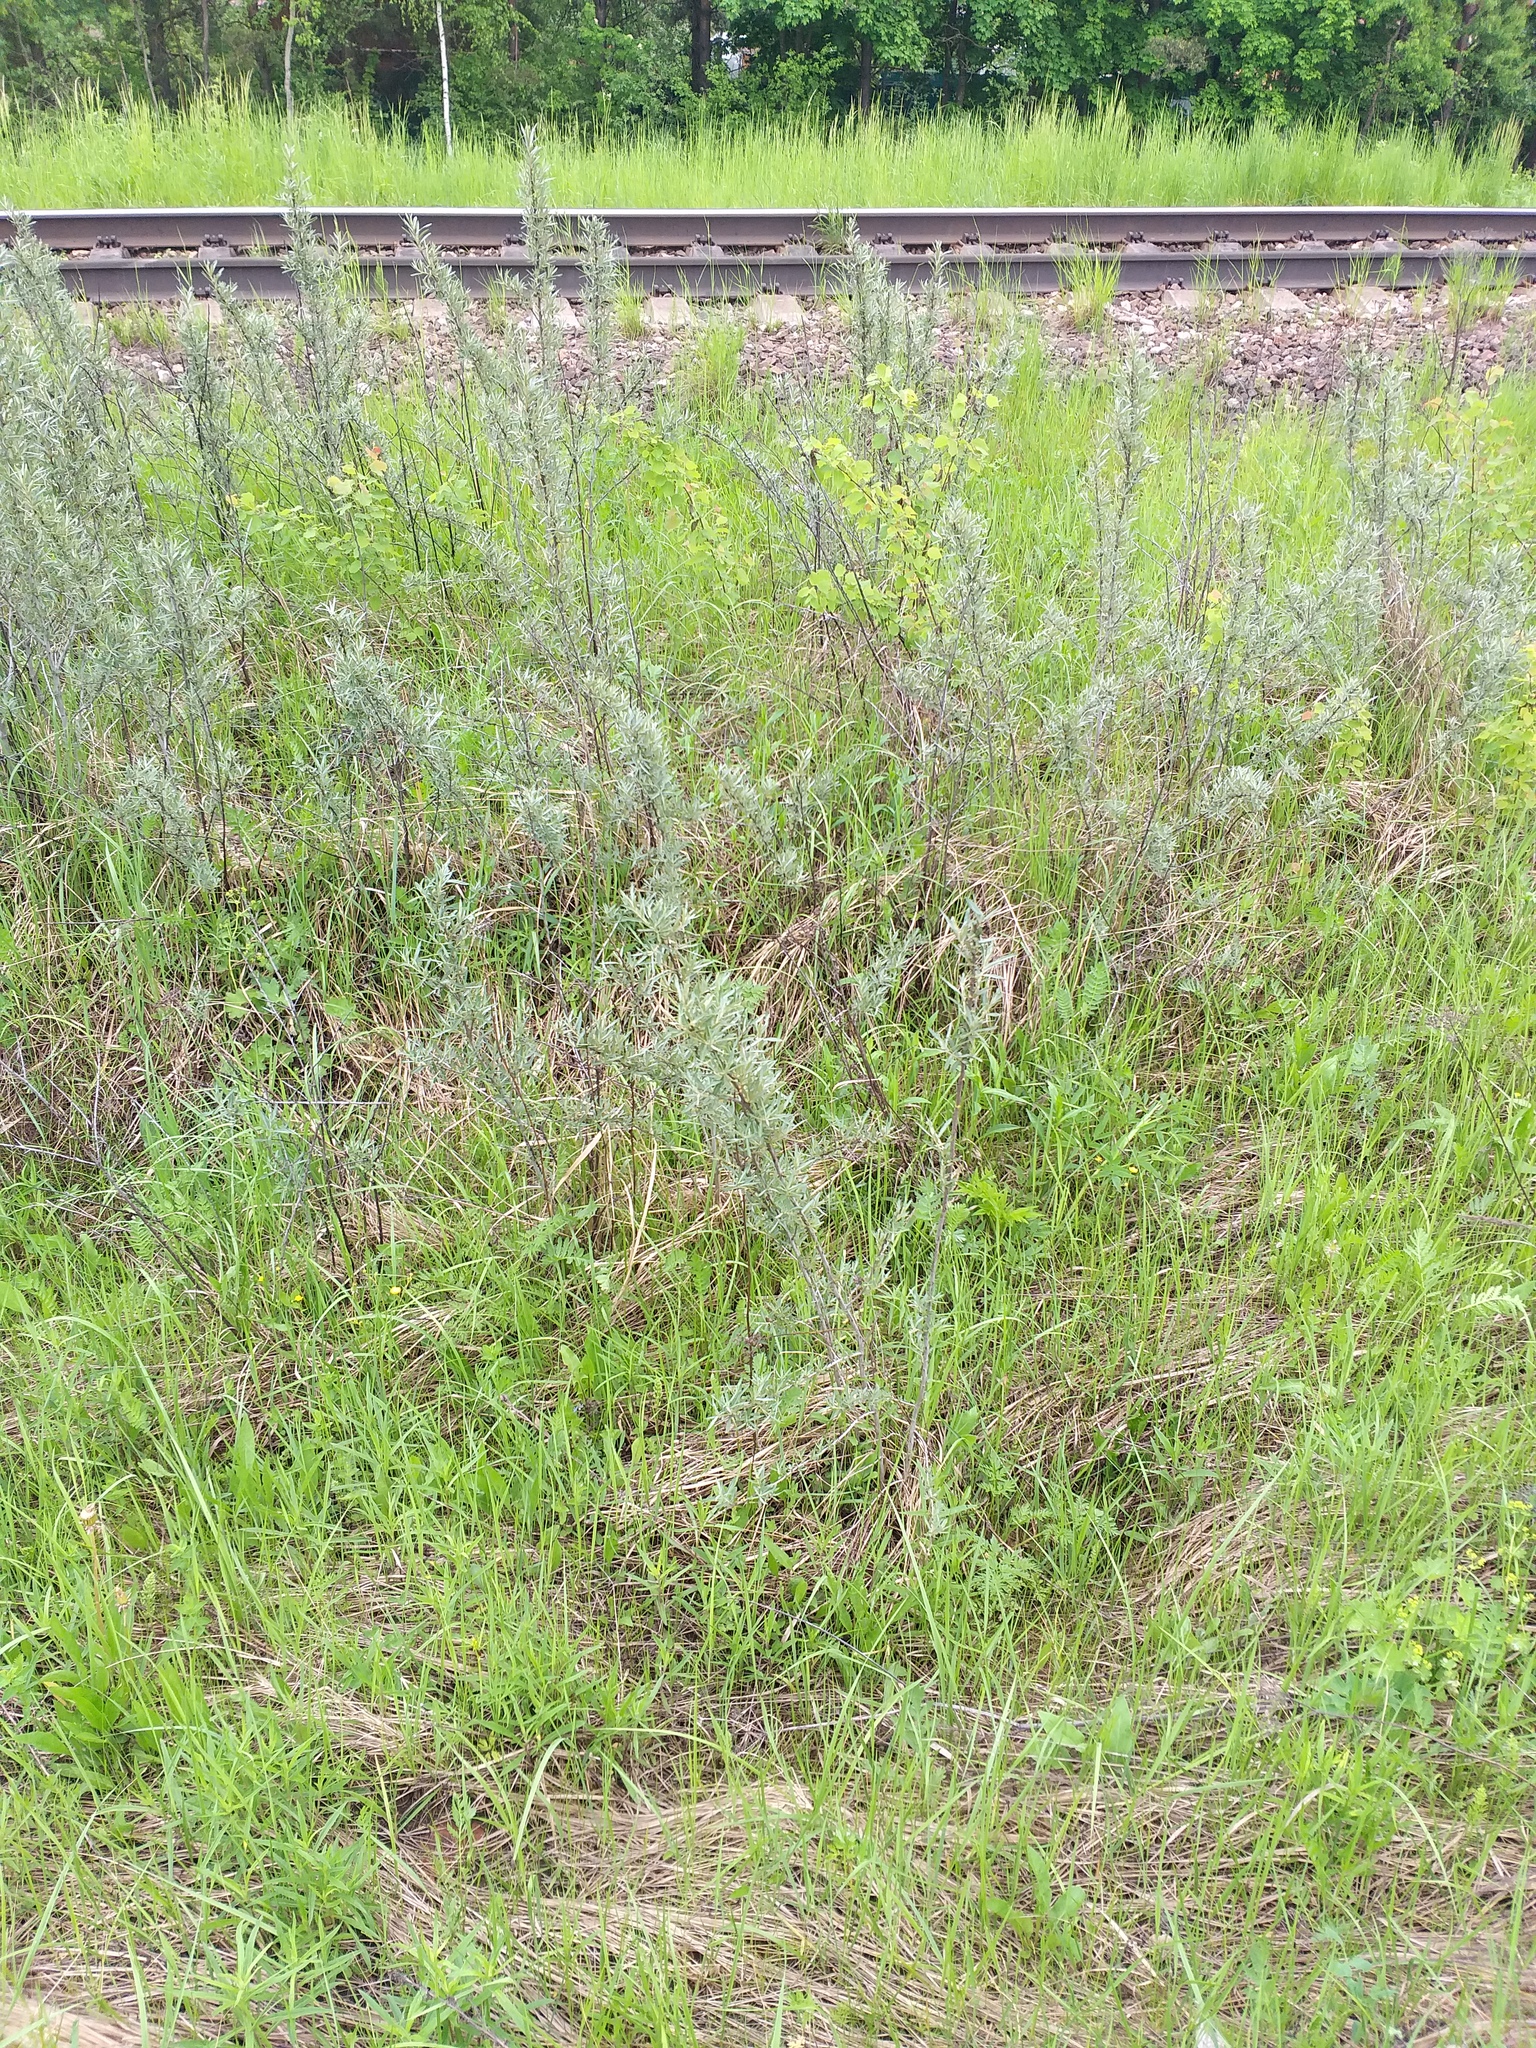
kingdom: Plantae
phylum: Tracheophyta
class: Magnoliopsida
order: Rosales
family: Elaeagnaceae
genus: Hippophae
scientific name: Hippophae rhamnoides
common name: Sea-buckthorn
